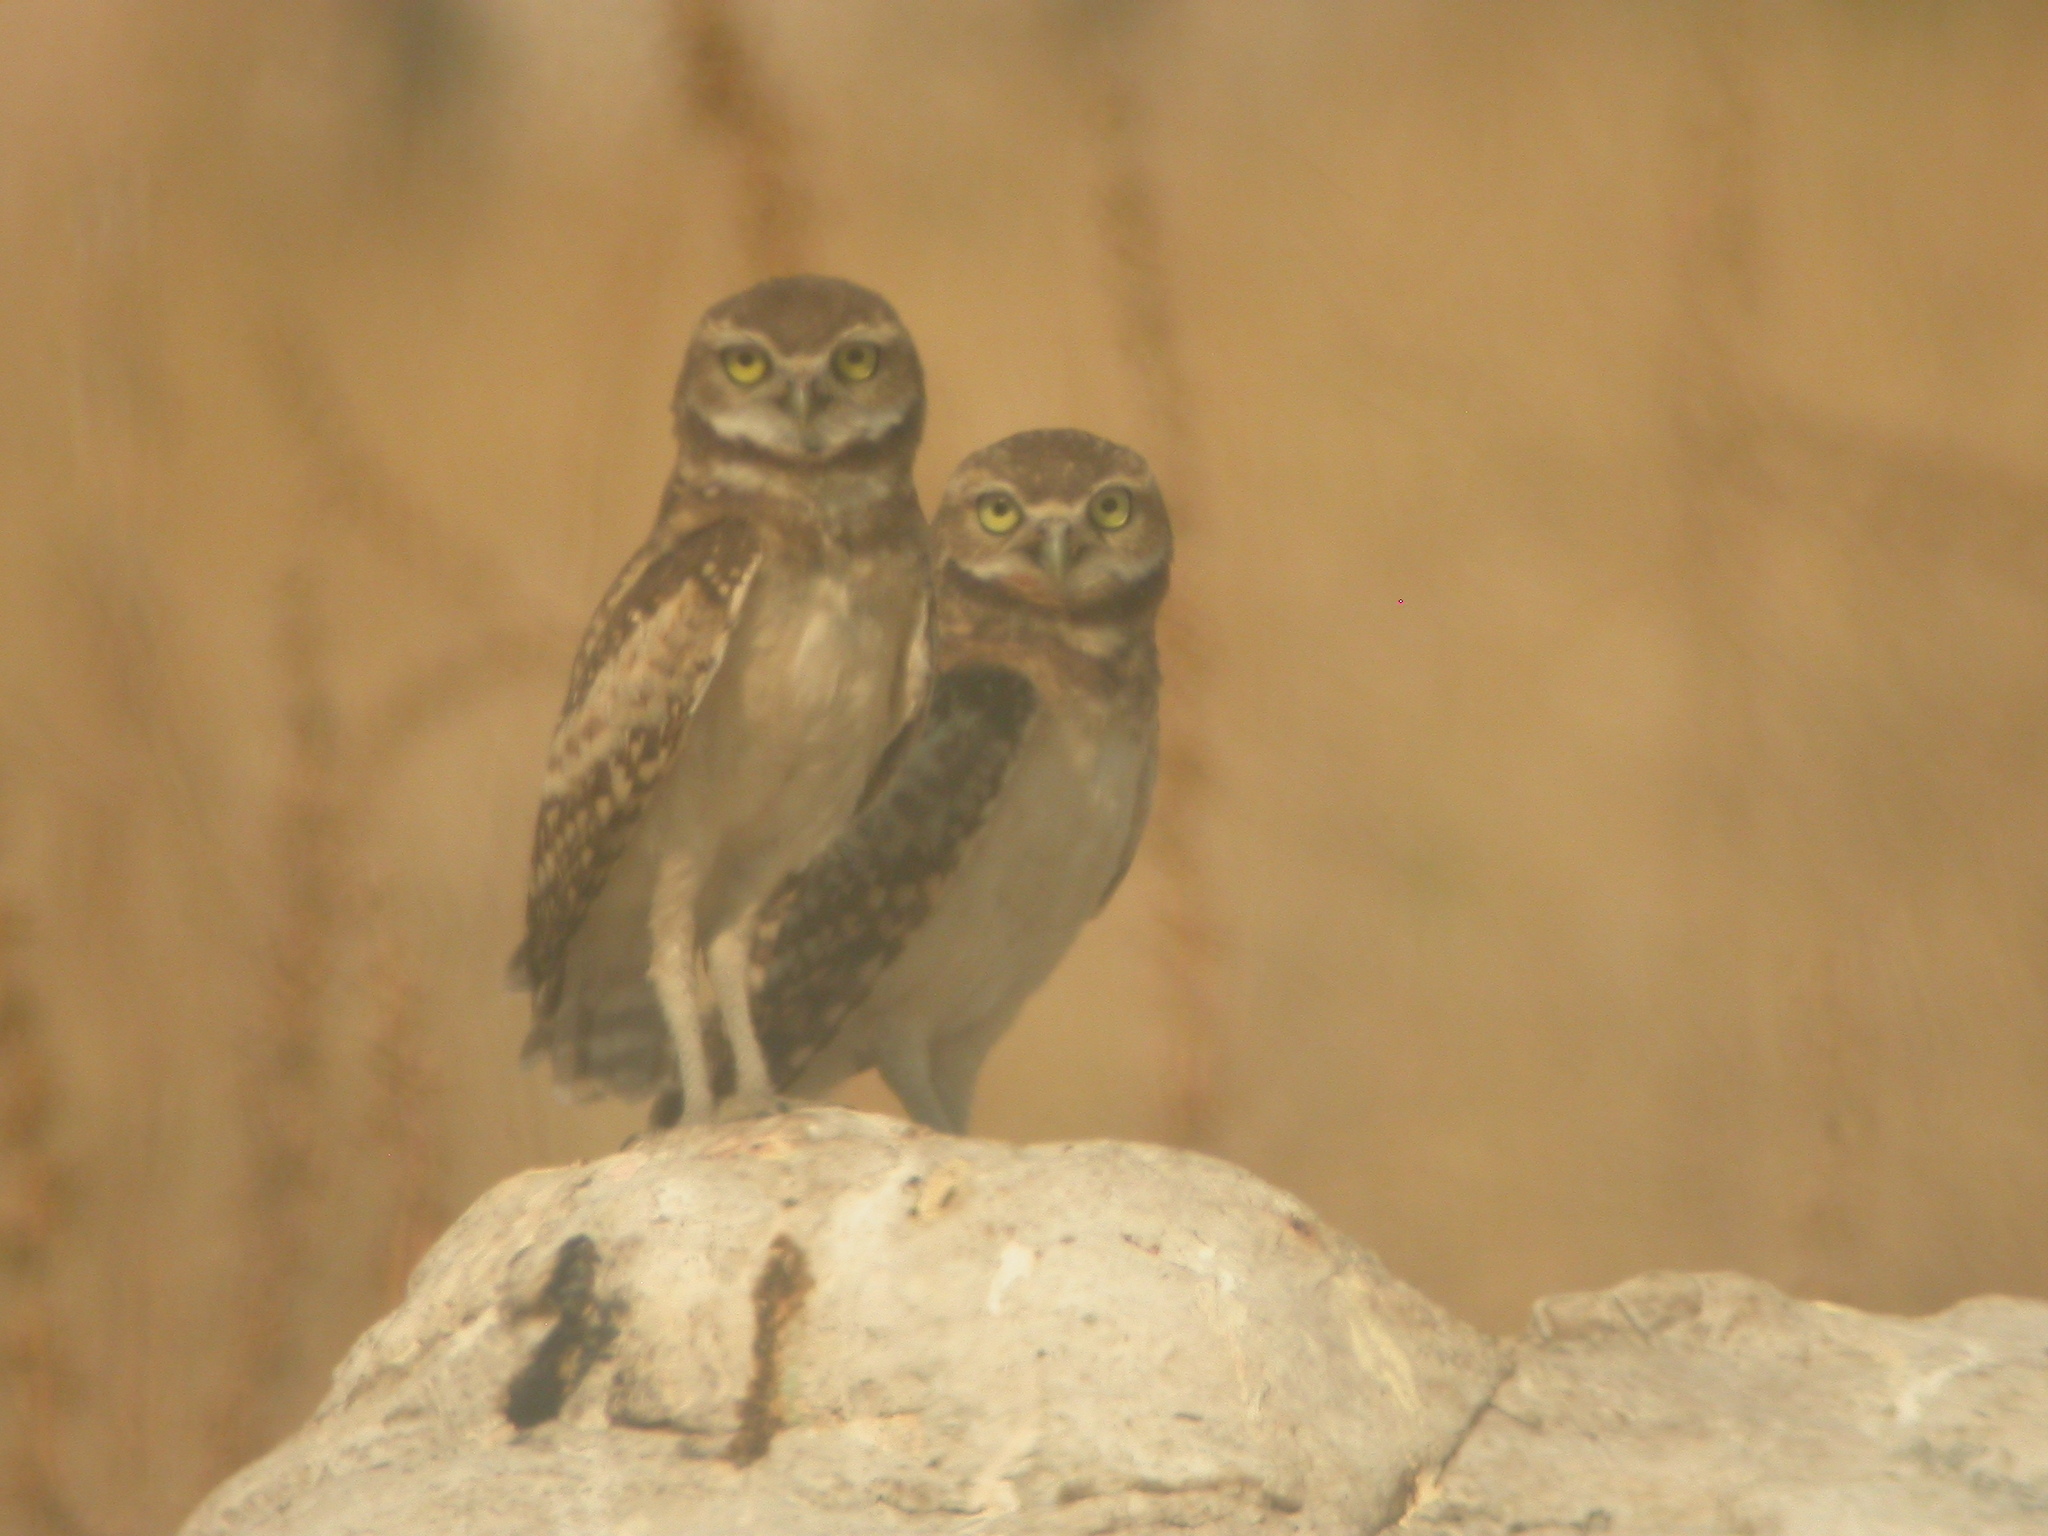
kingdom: Animalia
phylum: Chordata
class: Aves
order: Strigiformes
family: Strigidae
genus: Athene
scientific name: Athene cunicularia
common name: Burrowing owl
